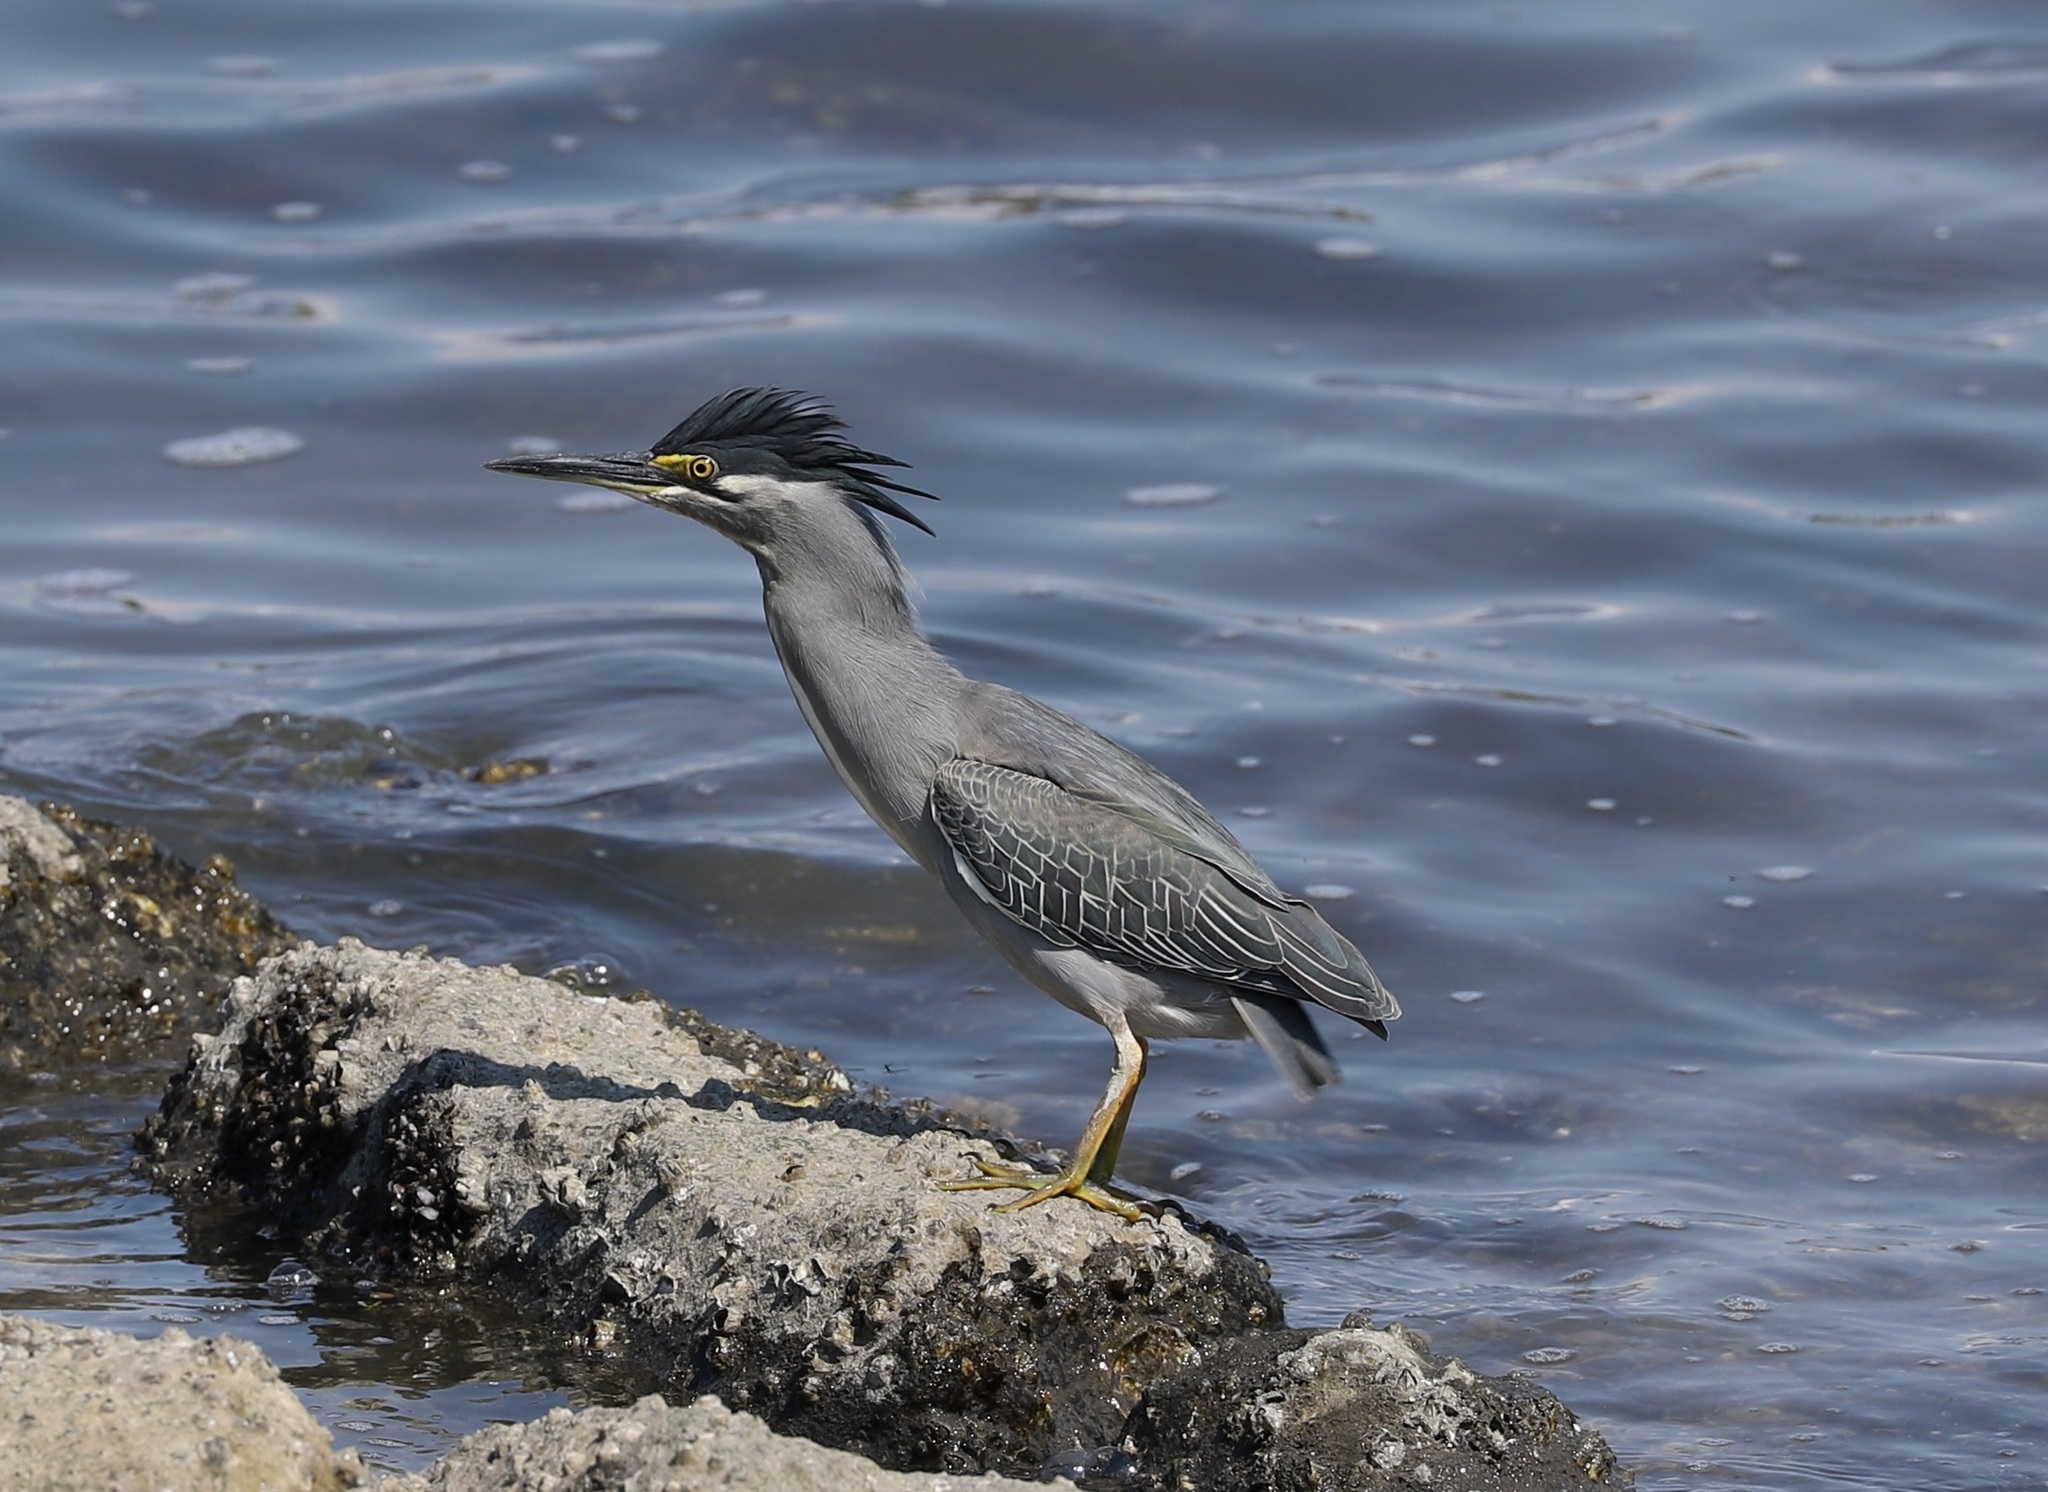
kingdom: Animalia
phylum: Chordata
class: Aves
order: Pelecaniformes
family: Ardeidae
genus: Butorides
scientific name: Butorides striata
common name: Striated heron
